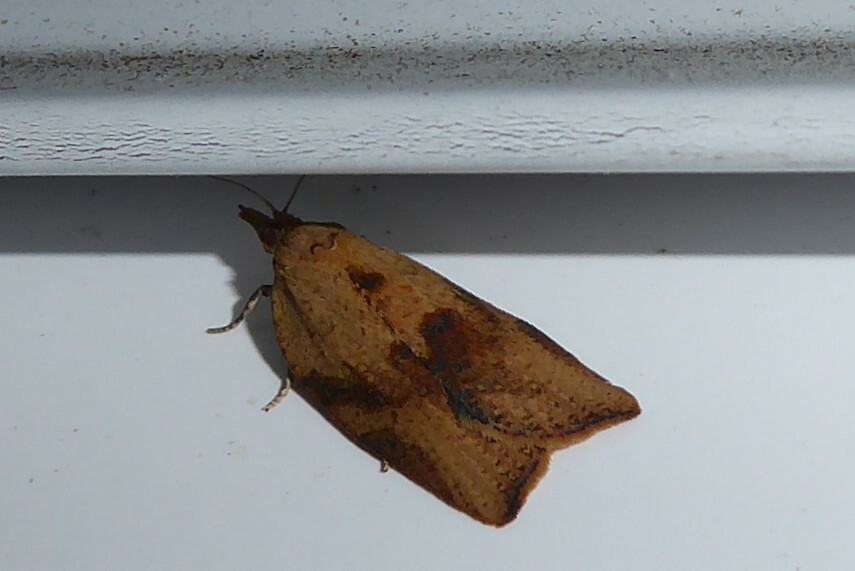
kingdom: Animalia
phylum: Arthropoda
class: Insecta
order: Lepidoptera
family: Tortricidae
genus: Epiphyas
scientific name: Epiphyas postvittana
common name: Light brown apple moth
